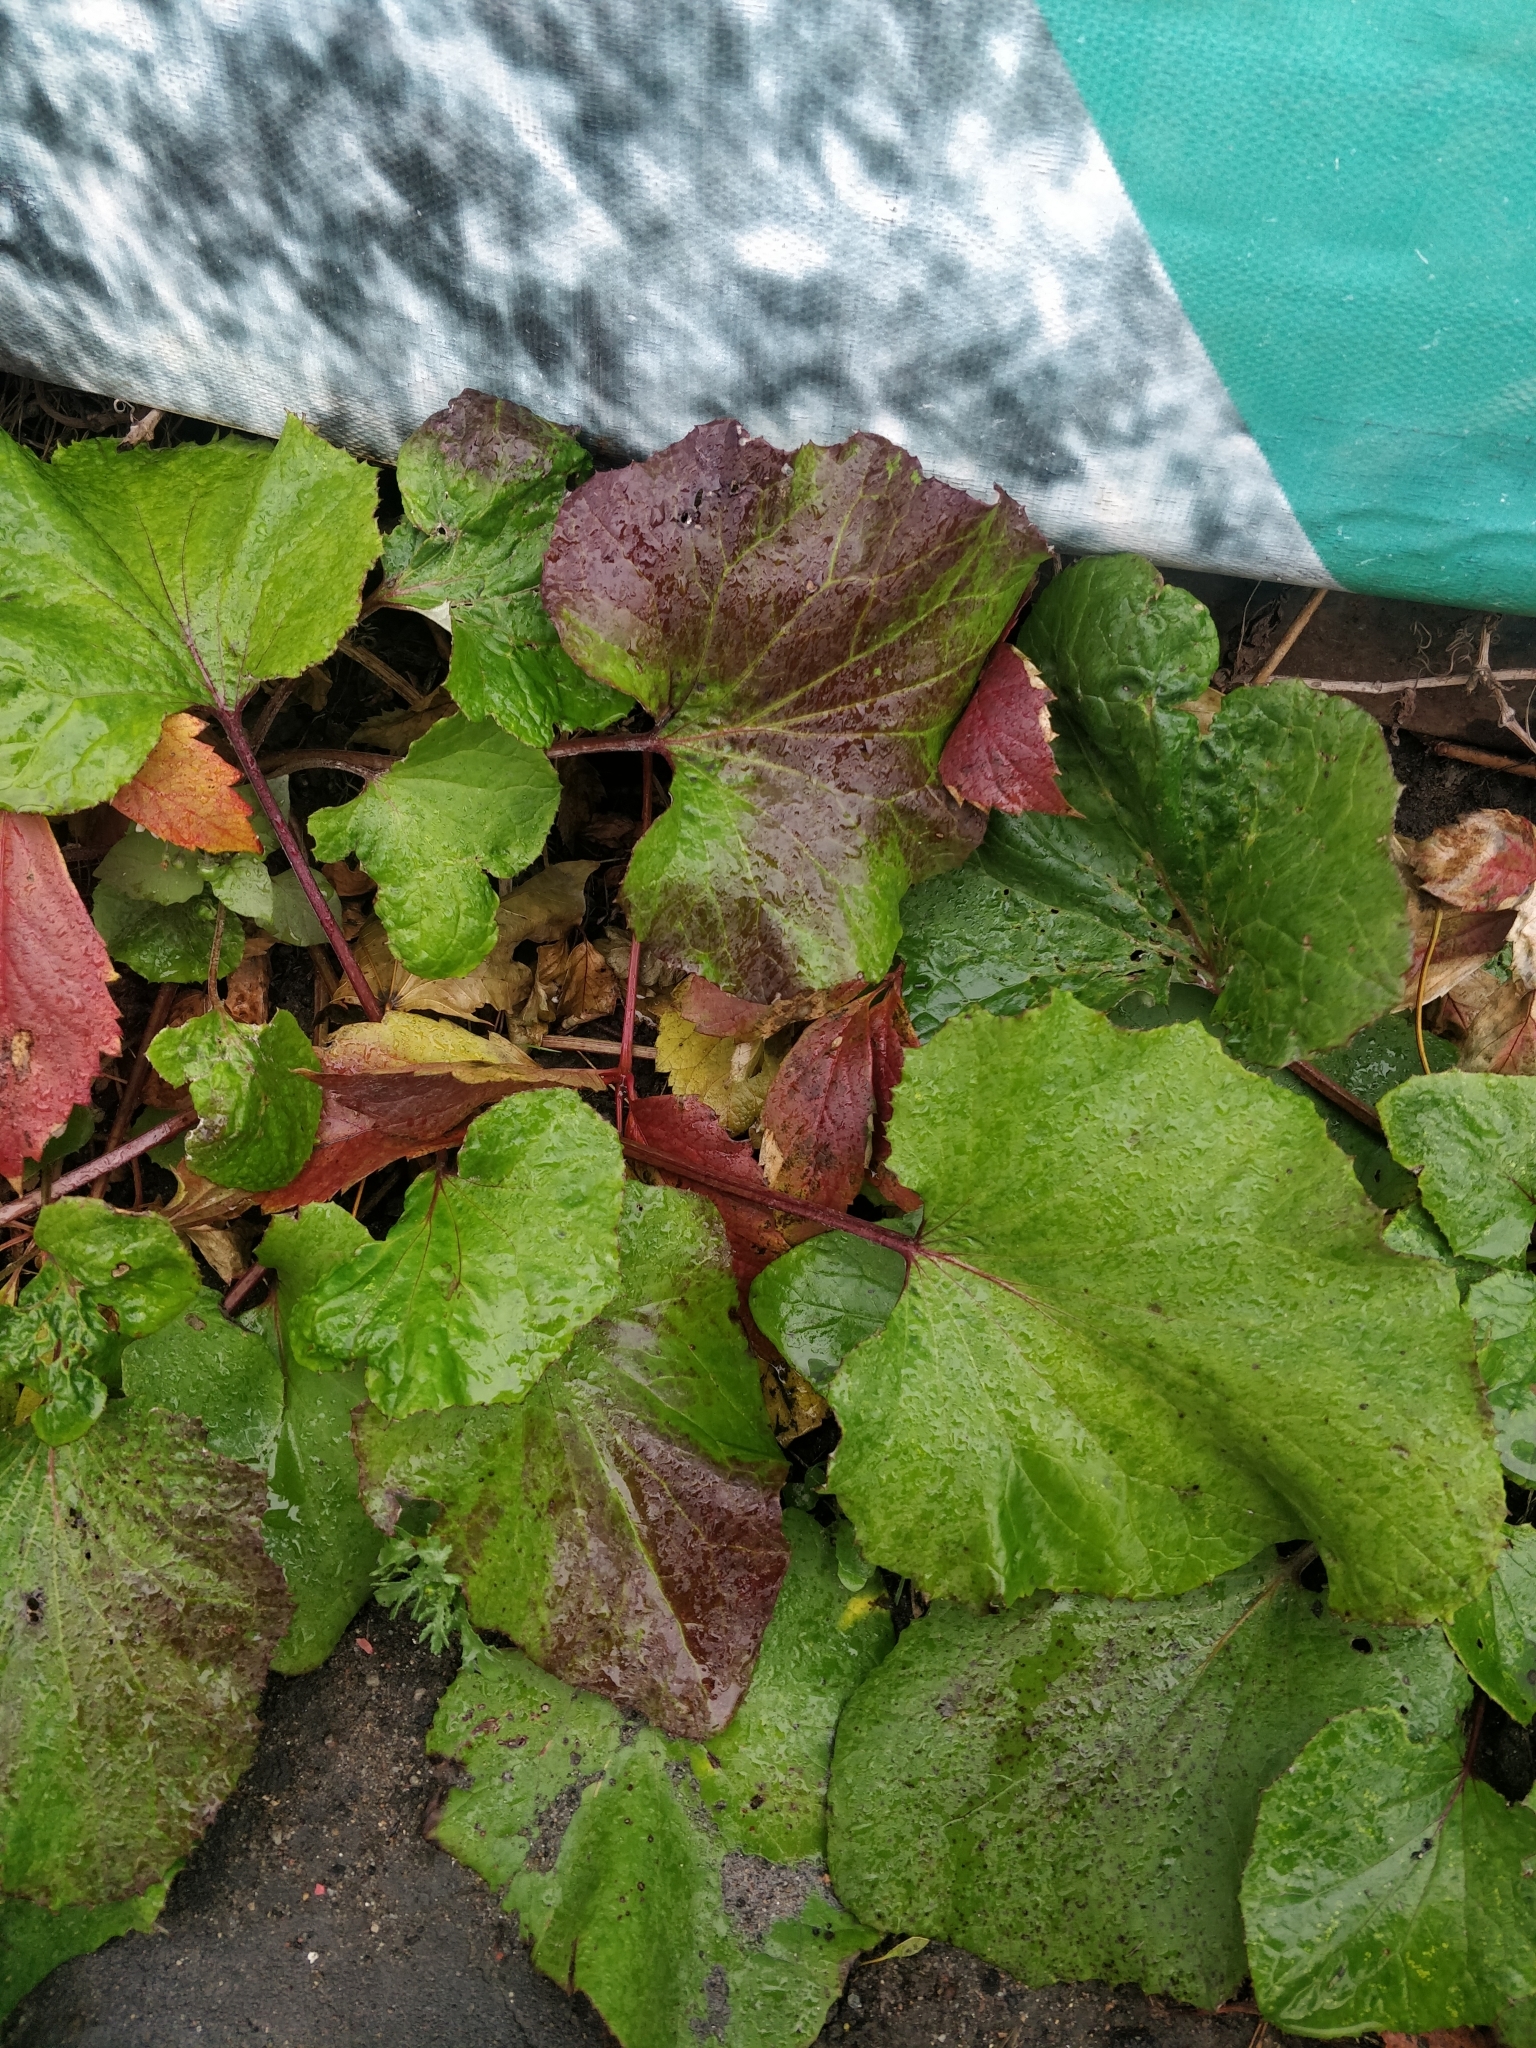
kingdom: Plantae
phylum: Tracheophyta
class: Magnoliopsida
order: Asterales
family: Asteraceae
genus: Tussilago
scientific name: Tussilago farfara
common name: Coltsfoot
